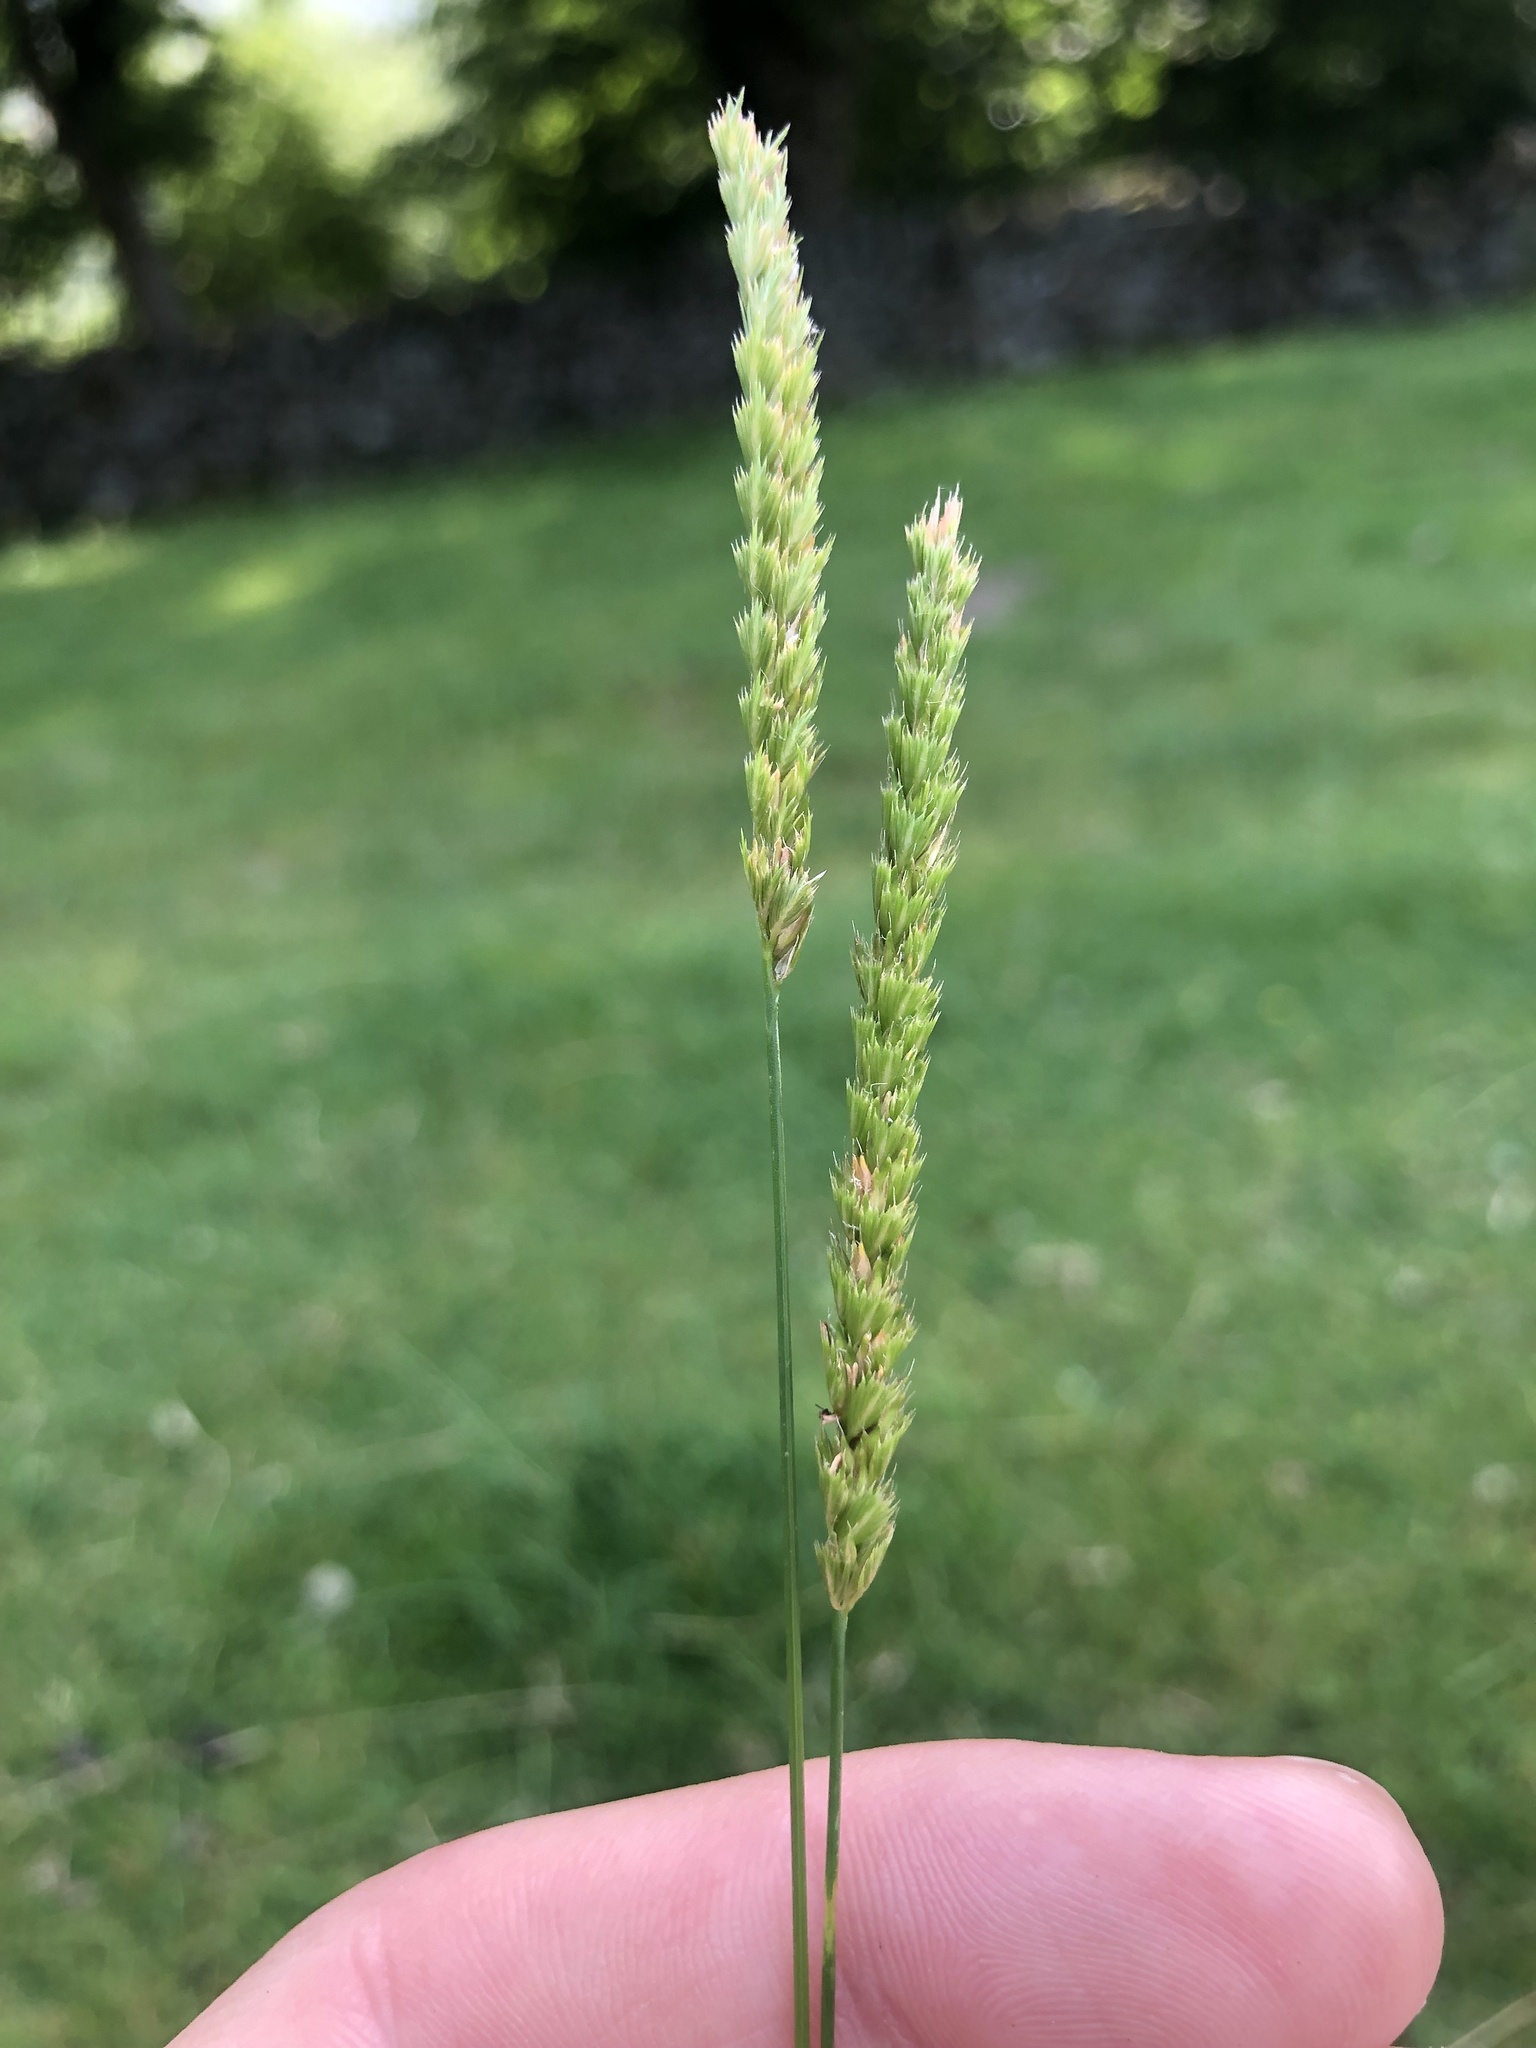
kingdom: Plantae
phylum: Tracheophyta
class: Liliopsida
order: Poales
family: Poaceae
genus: Cynosurus
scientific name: Cynosurus cristatus
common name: Crested dog's-tail
